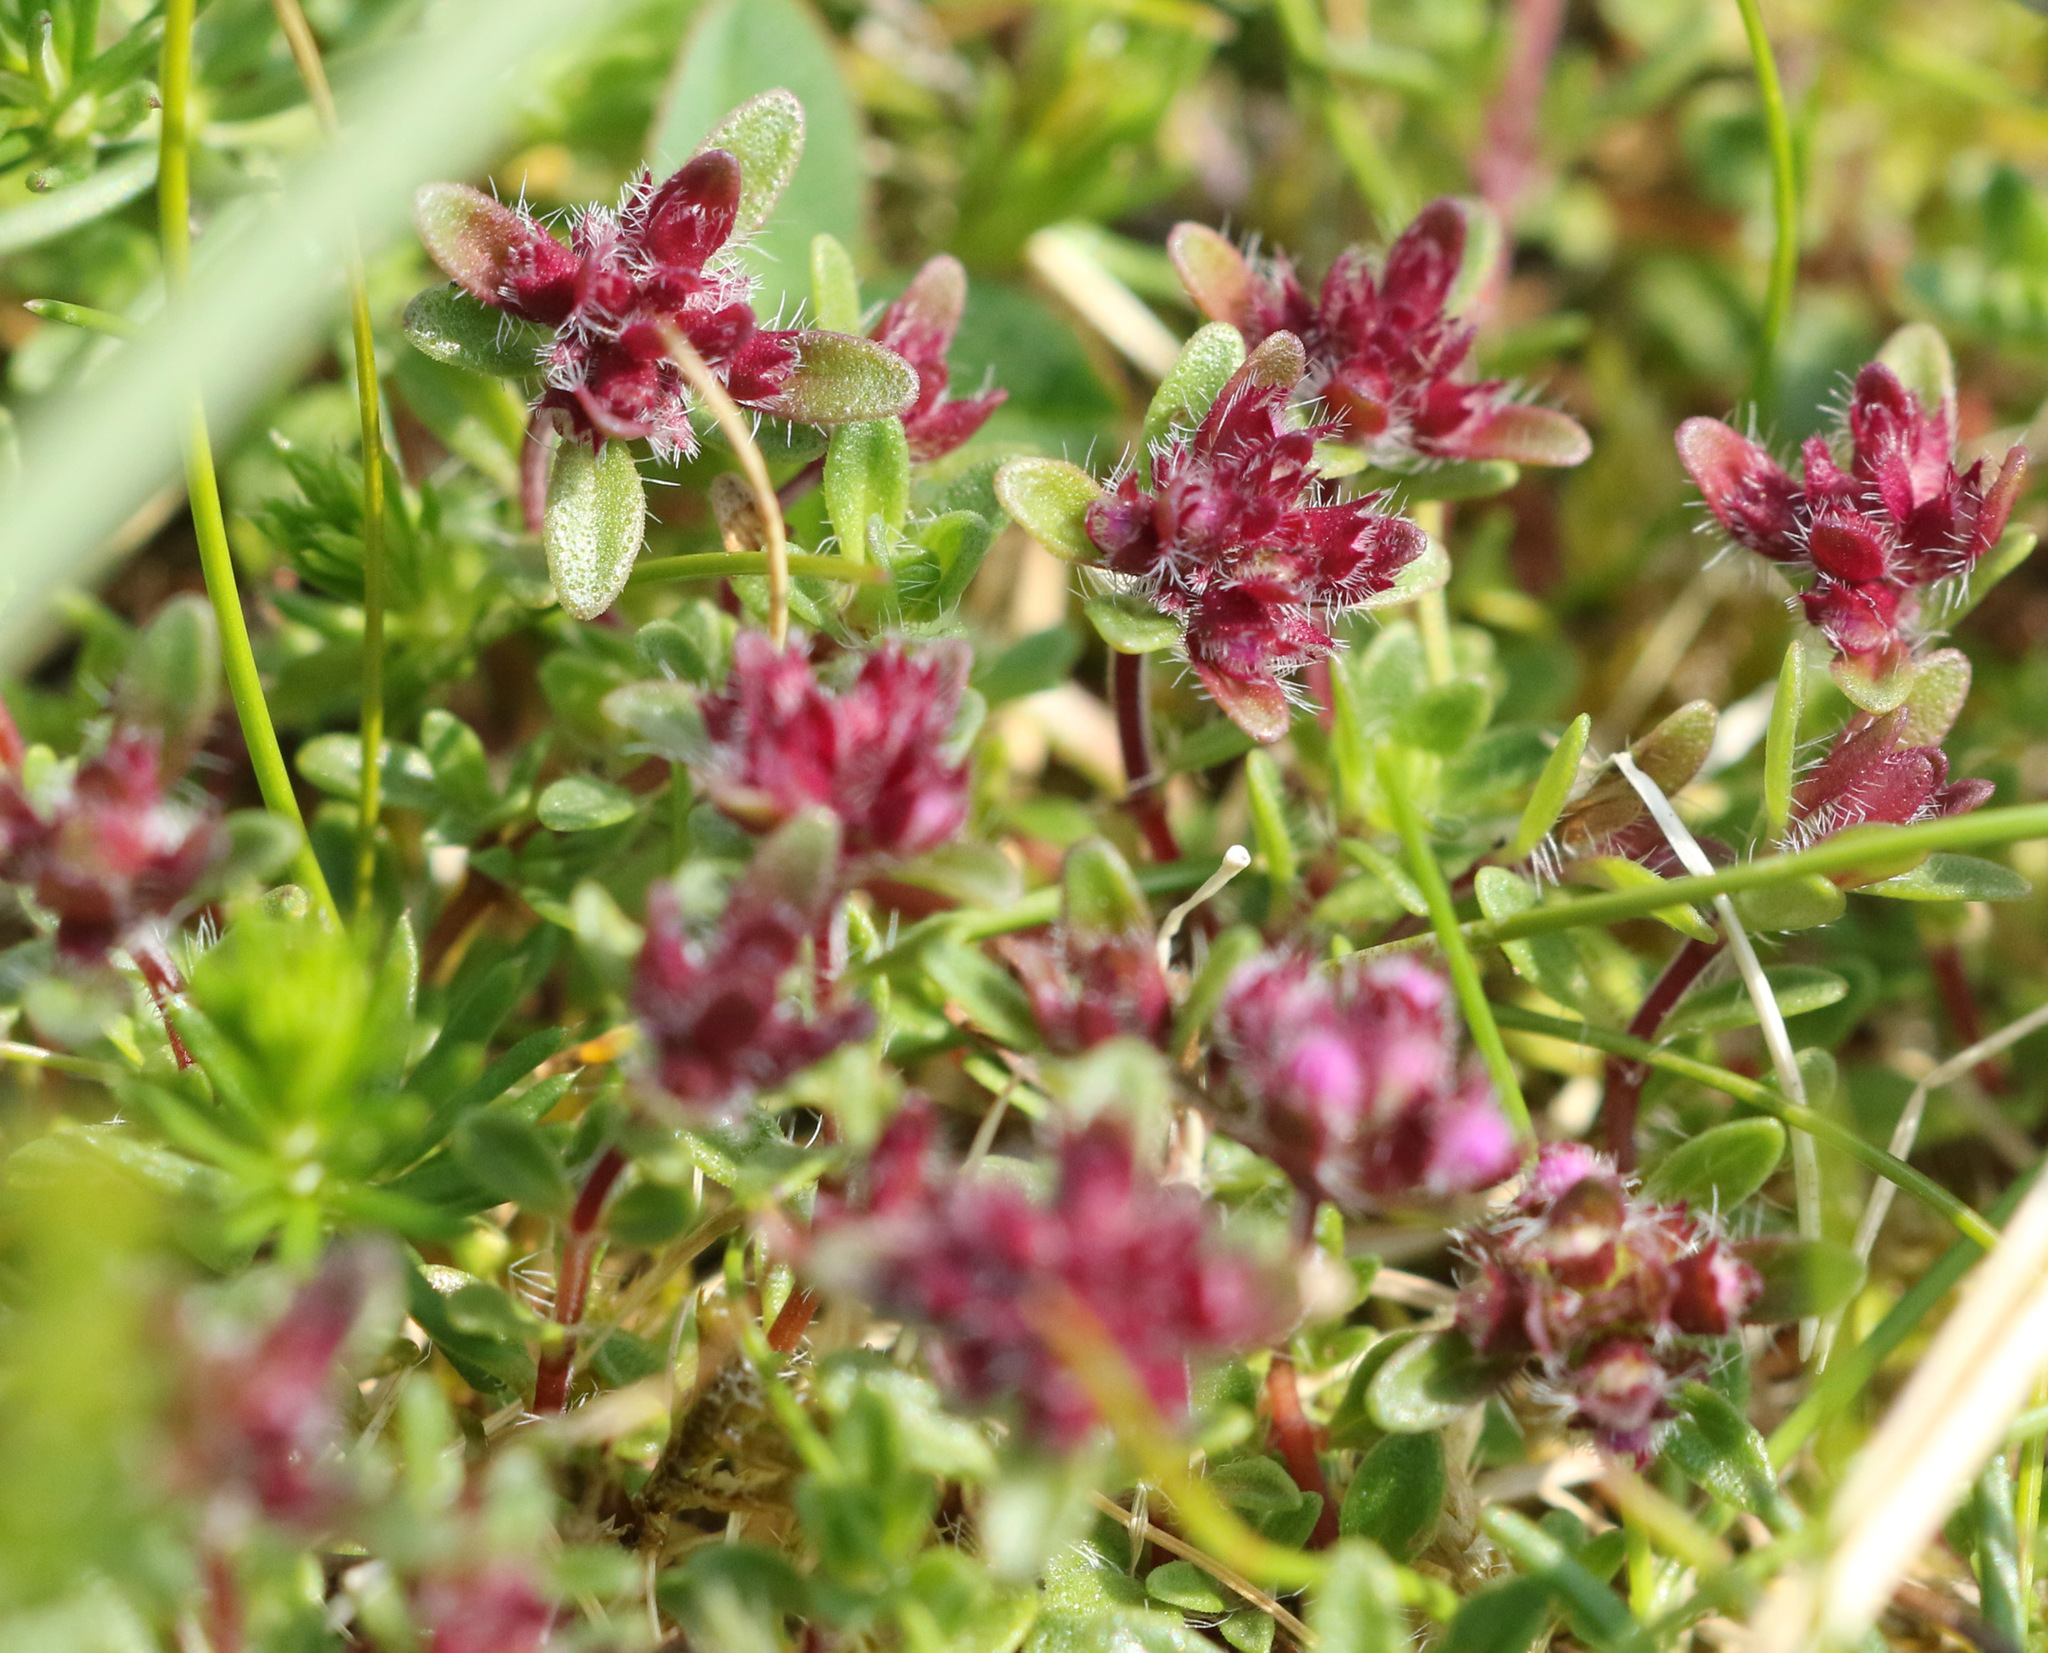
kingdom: Plantae
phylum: Tracheophyta
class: Magnoliopsida
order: Lamiales
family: Lamiaceae
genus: Thymus
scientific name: Thymus praecox
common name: Wild thyme
